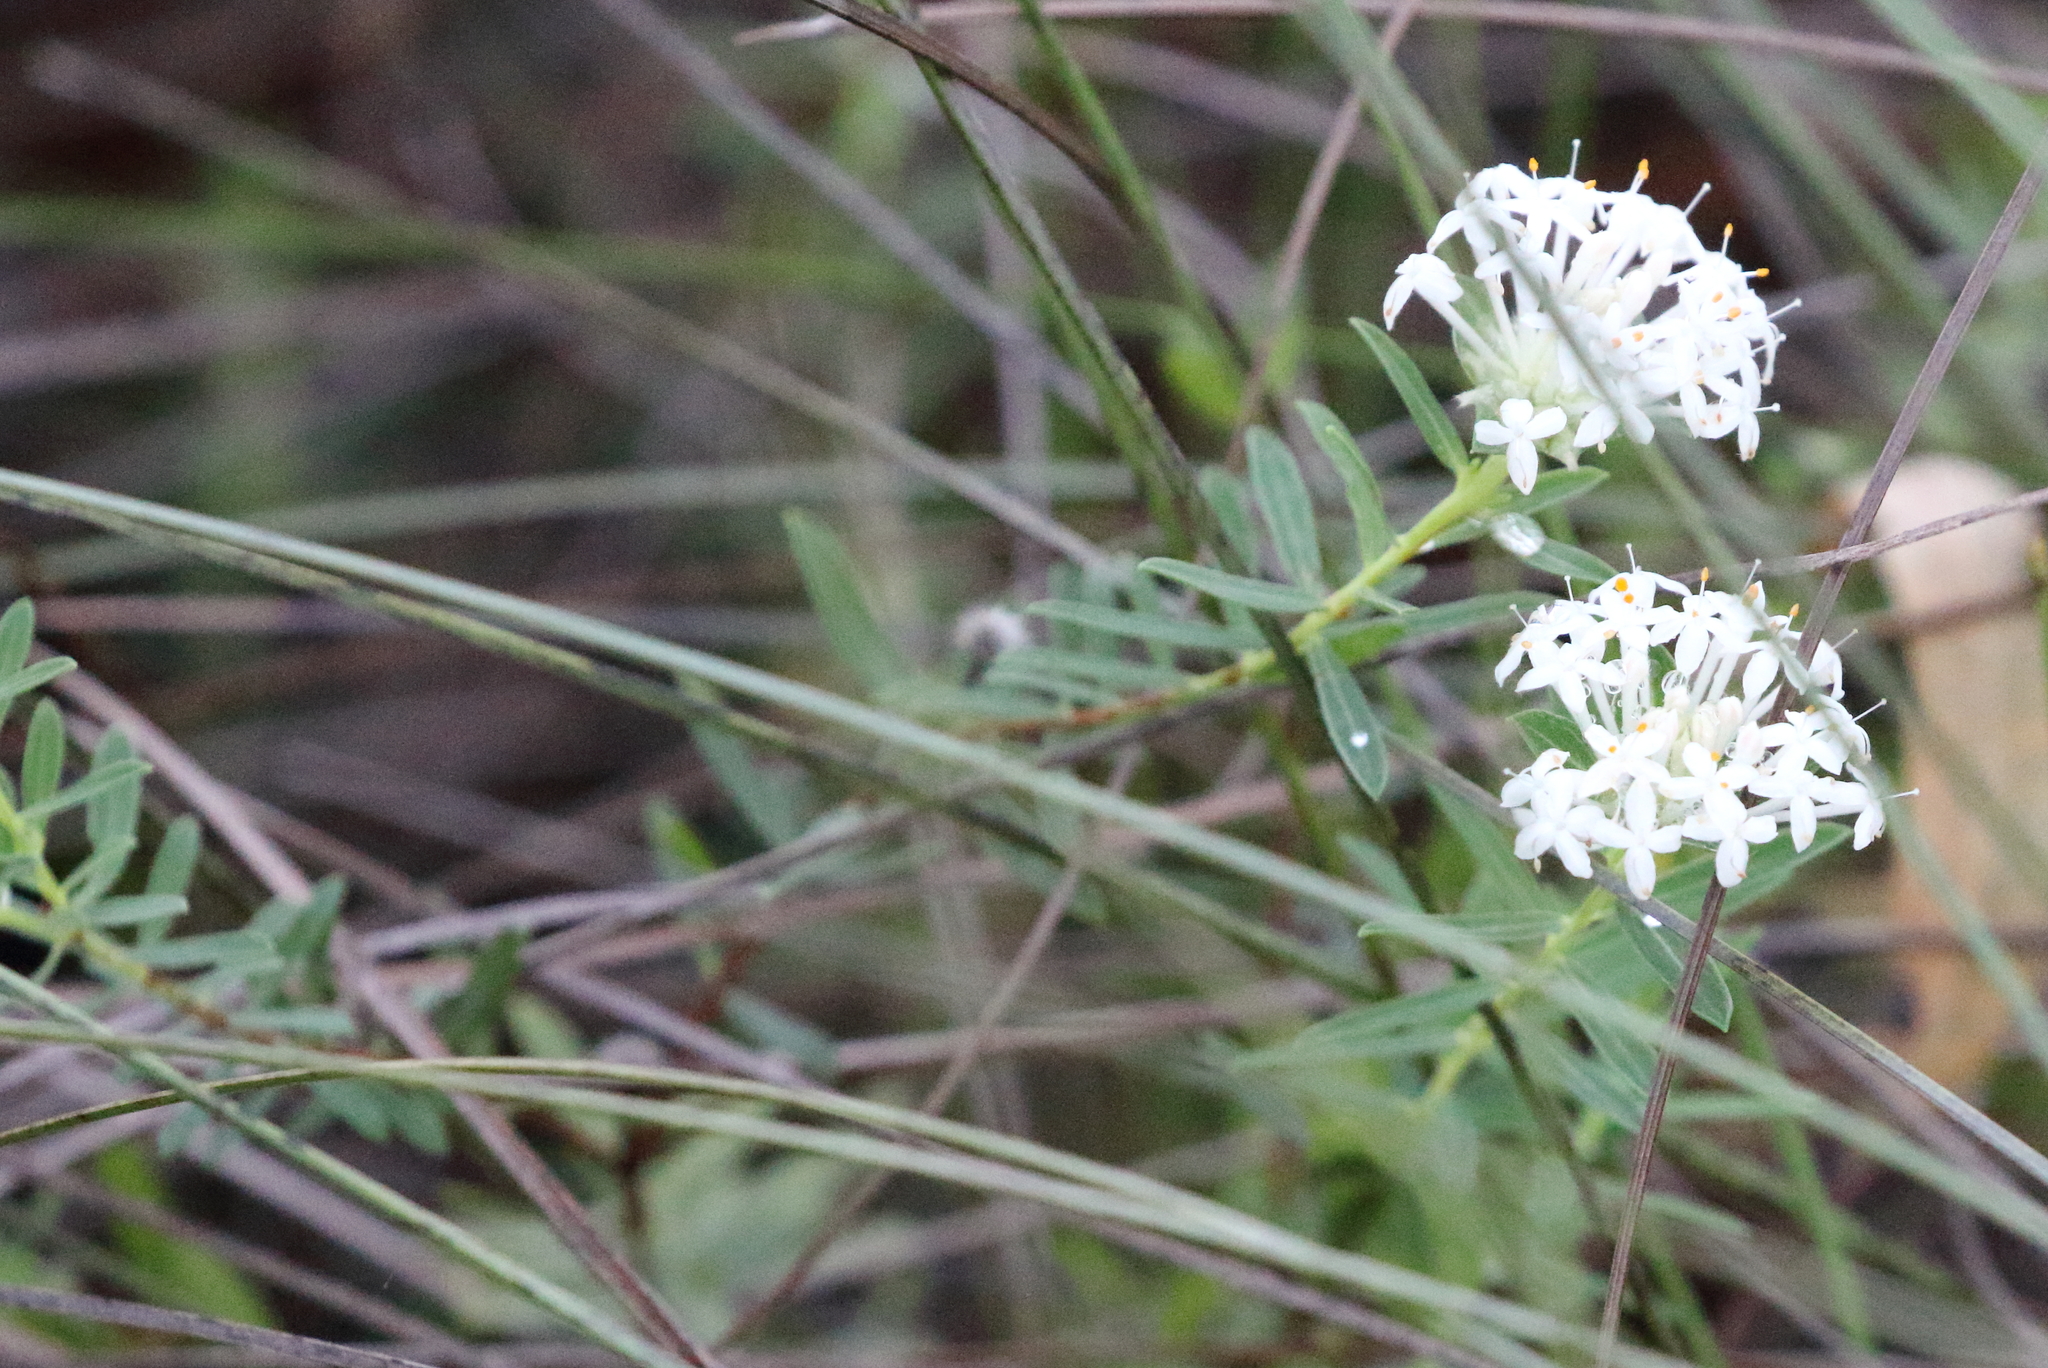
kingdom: Plantae
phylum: Tracheophyta
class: Magnoliopsida
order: Malvales
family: Thymelaeaceae
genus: Pimelea
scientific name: Pimelea linifolia
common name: Queen-of-the-bush
